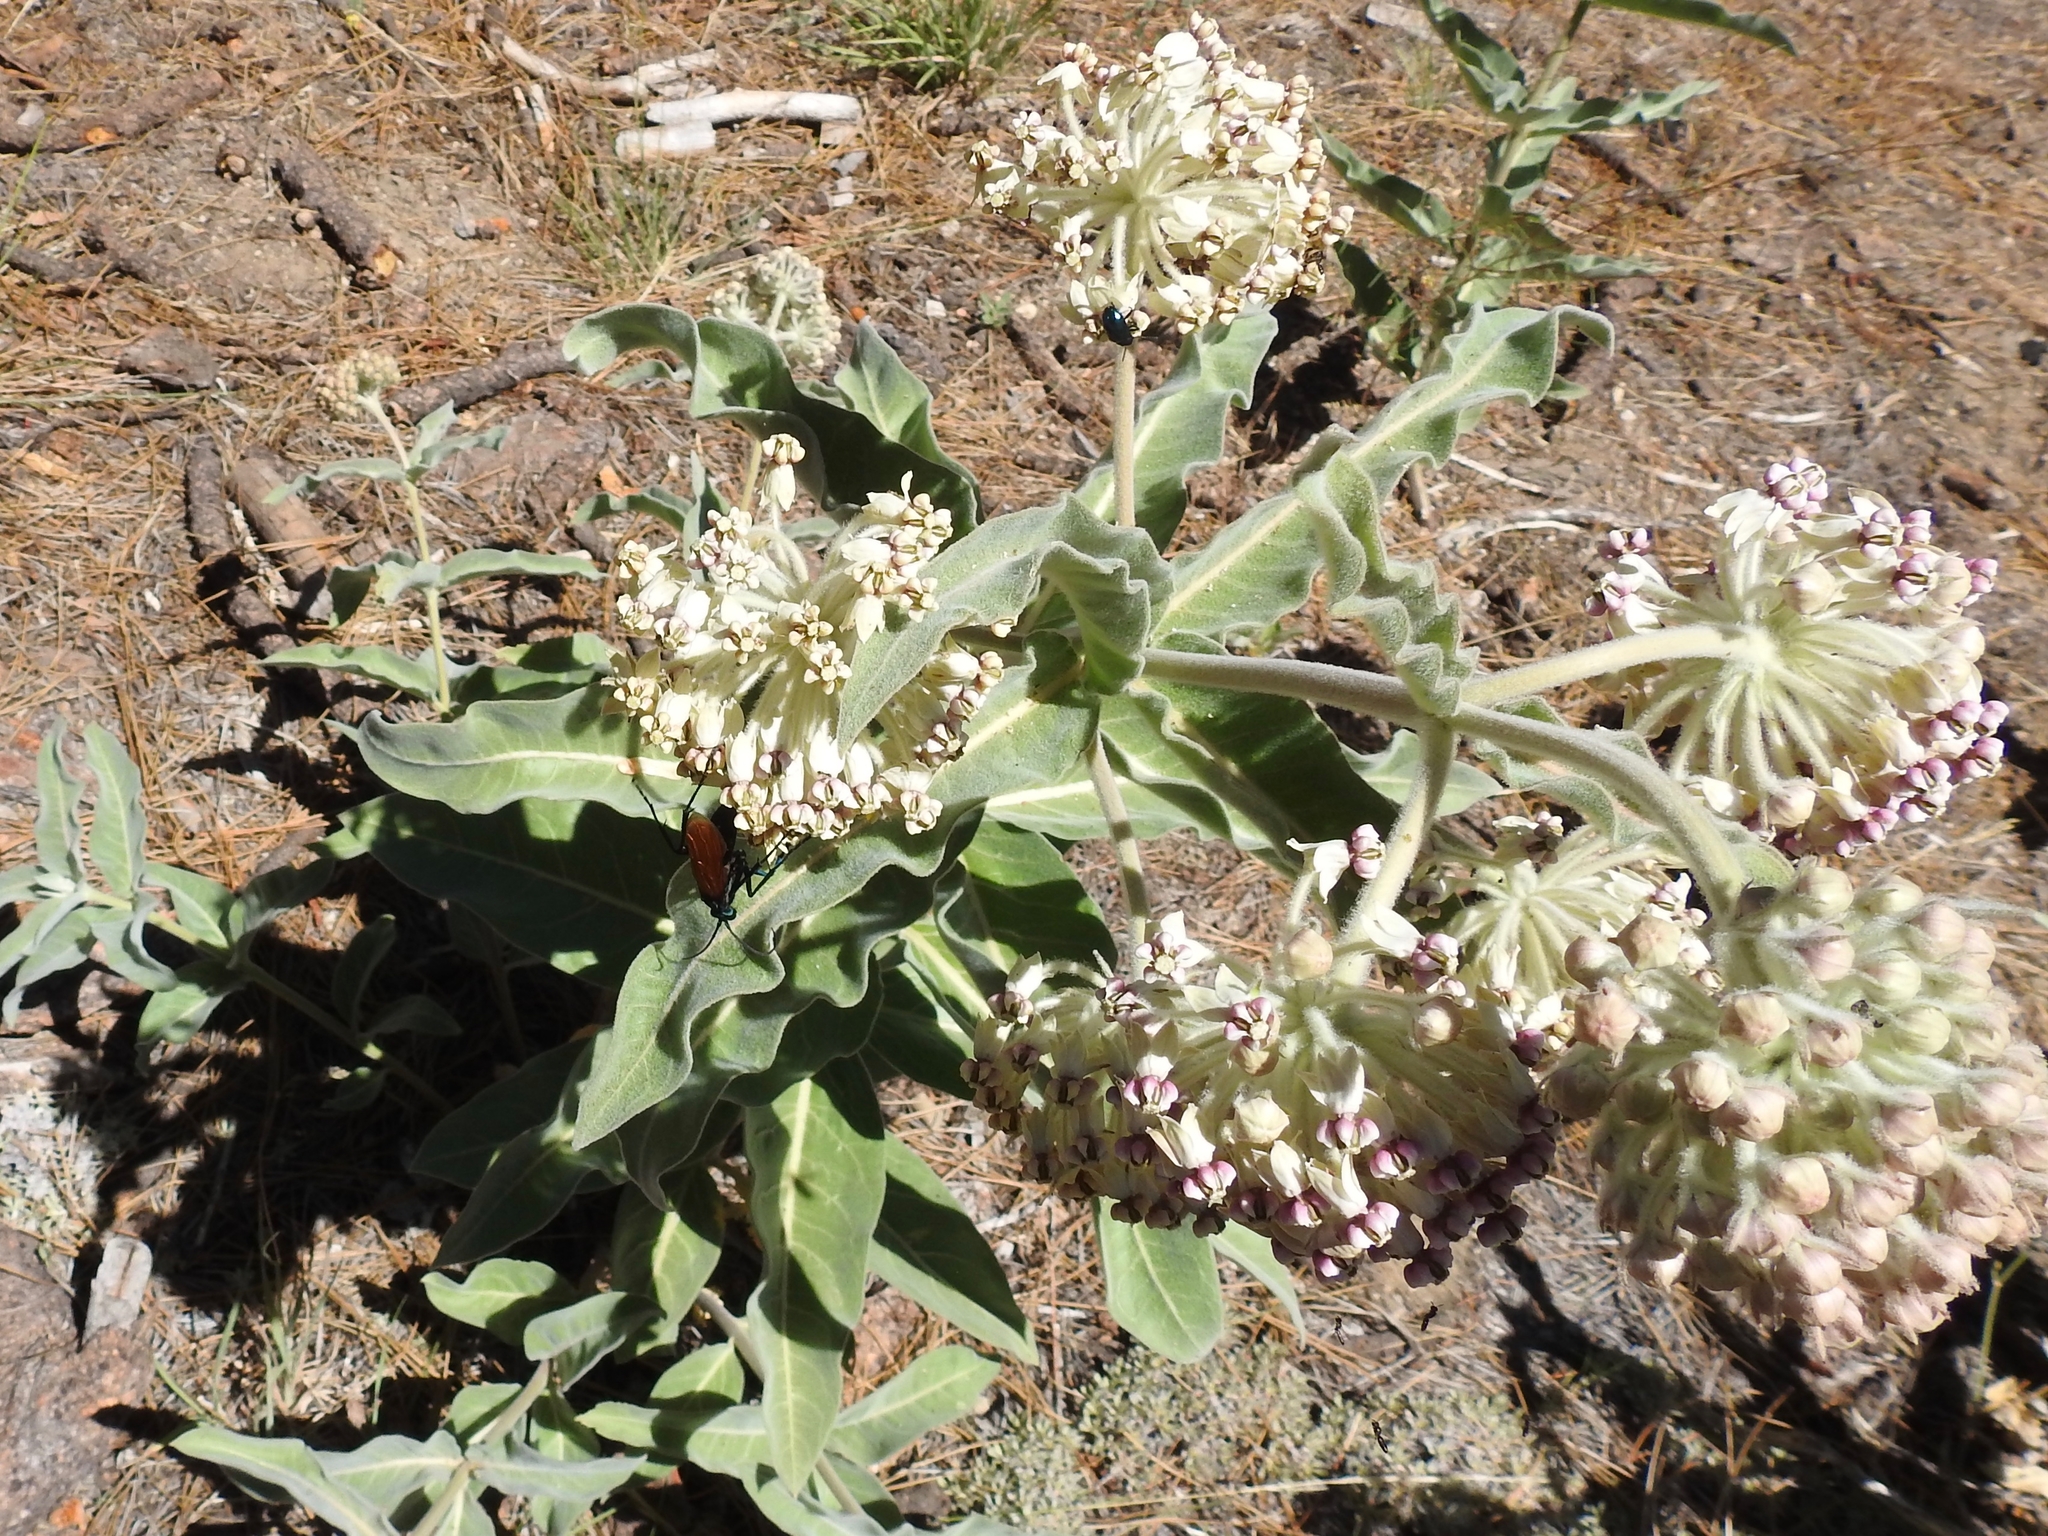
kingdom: Plantae
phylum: Tracheophyta
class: Magnoliopsida
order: Gentianales
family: Apocynaceae
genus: Asclepias
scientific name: Asclepias eriocarpa
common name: Indian milkweed
